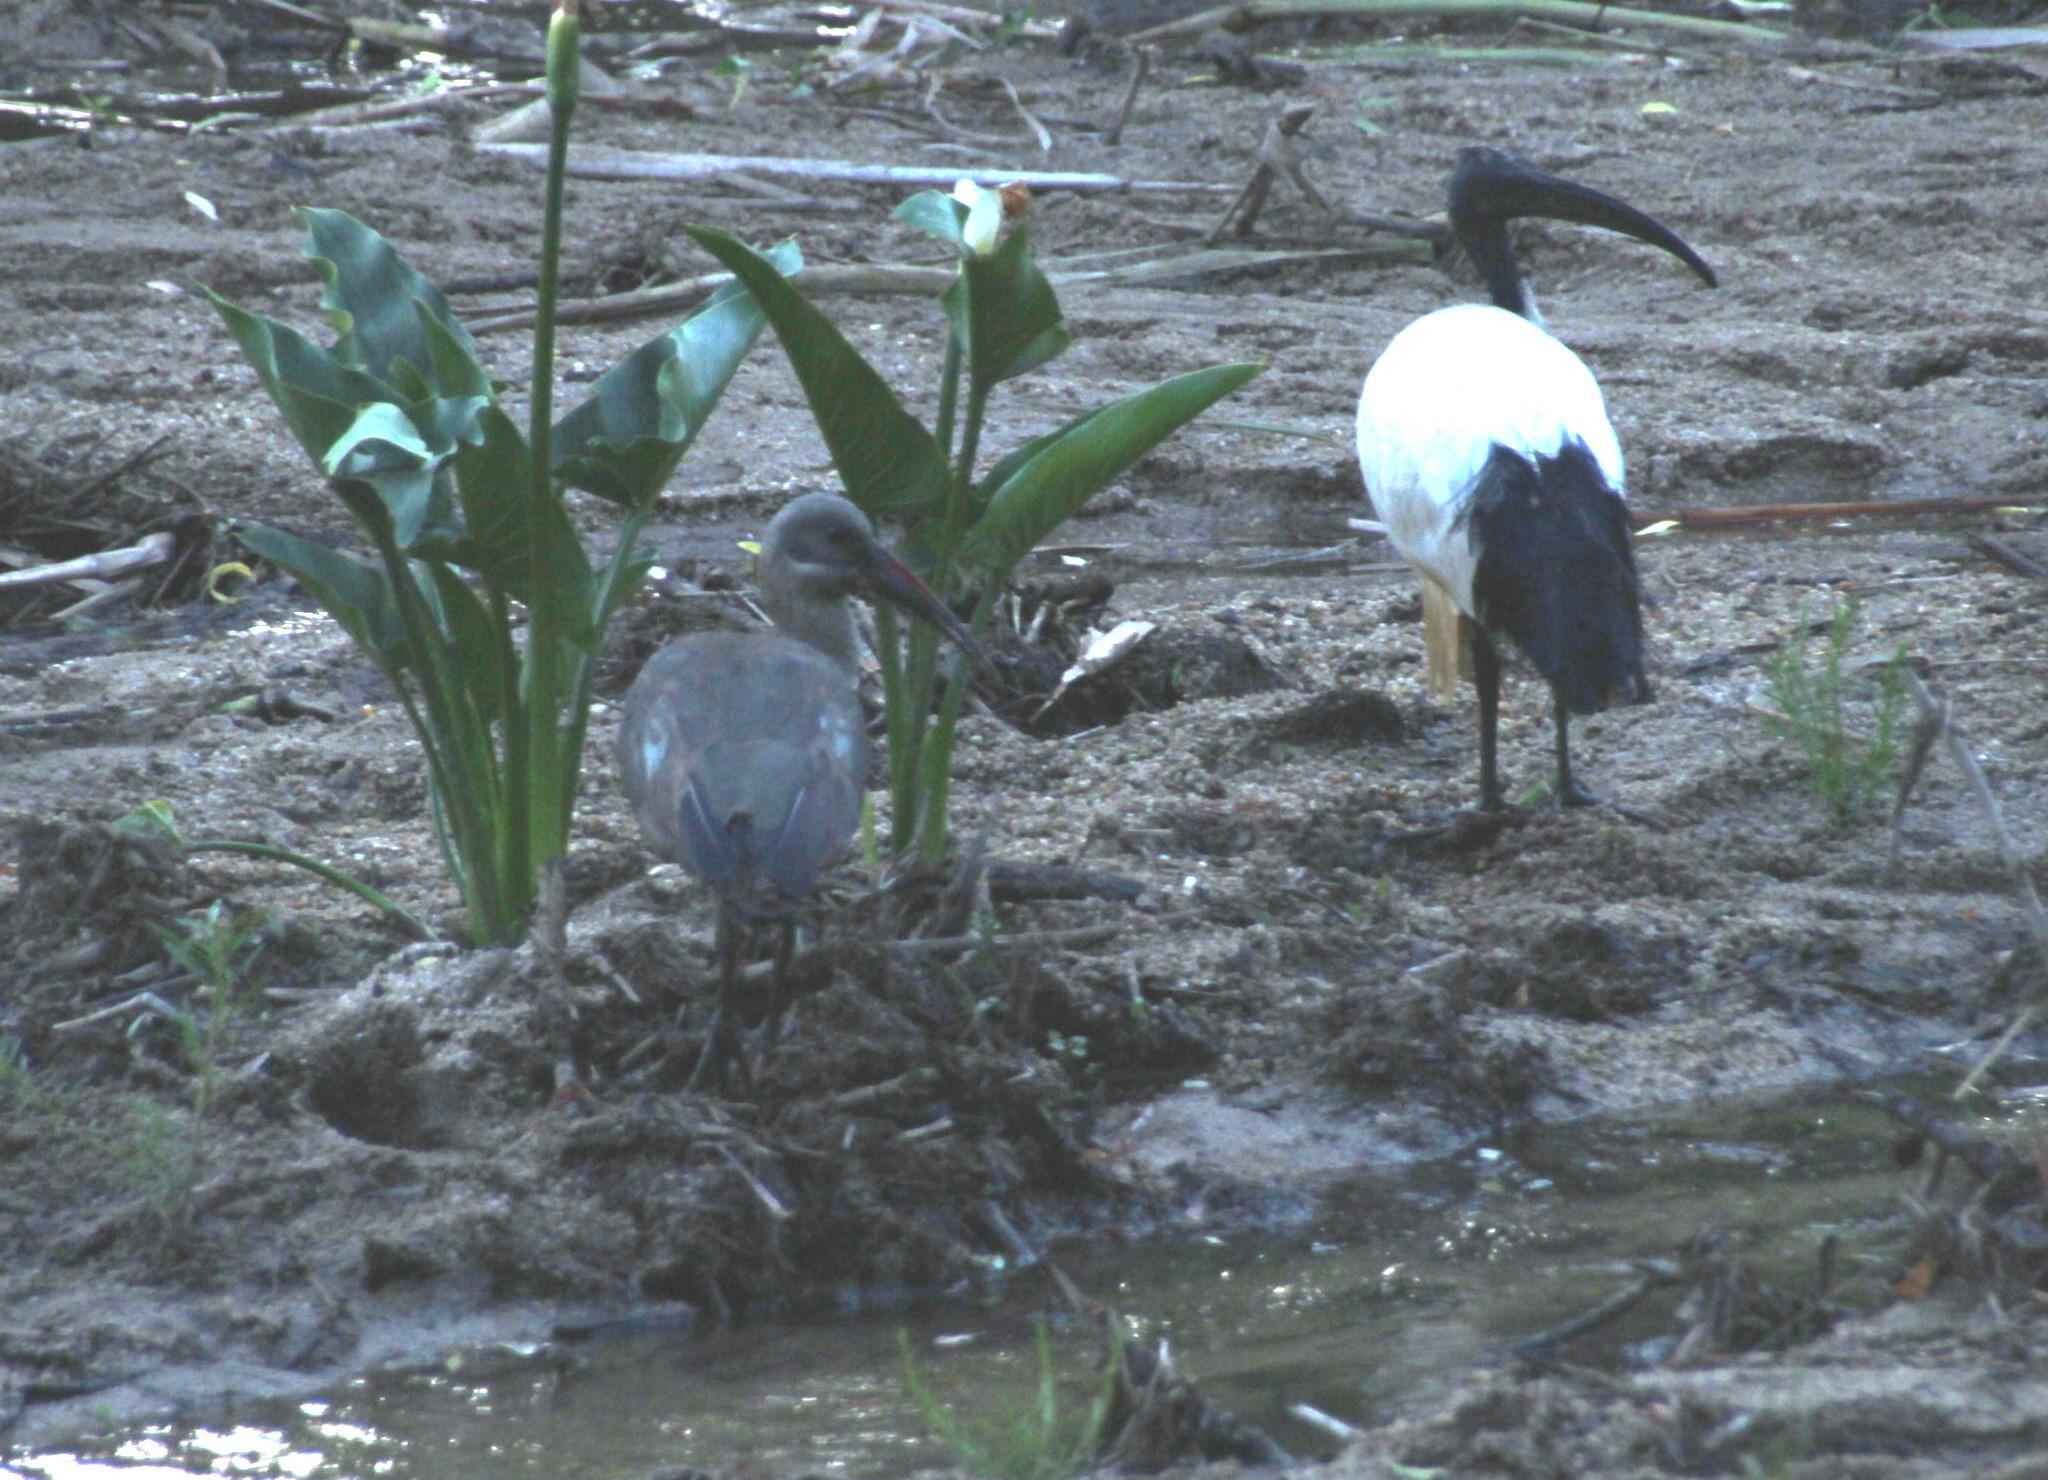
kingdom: Animalia
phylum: Chordata
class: Aves
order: Pelecaniformes
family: Threskiornithidae
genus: Threskiornis
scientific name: Threskiornis aethiopicus
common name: Sacred ibis
